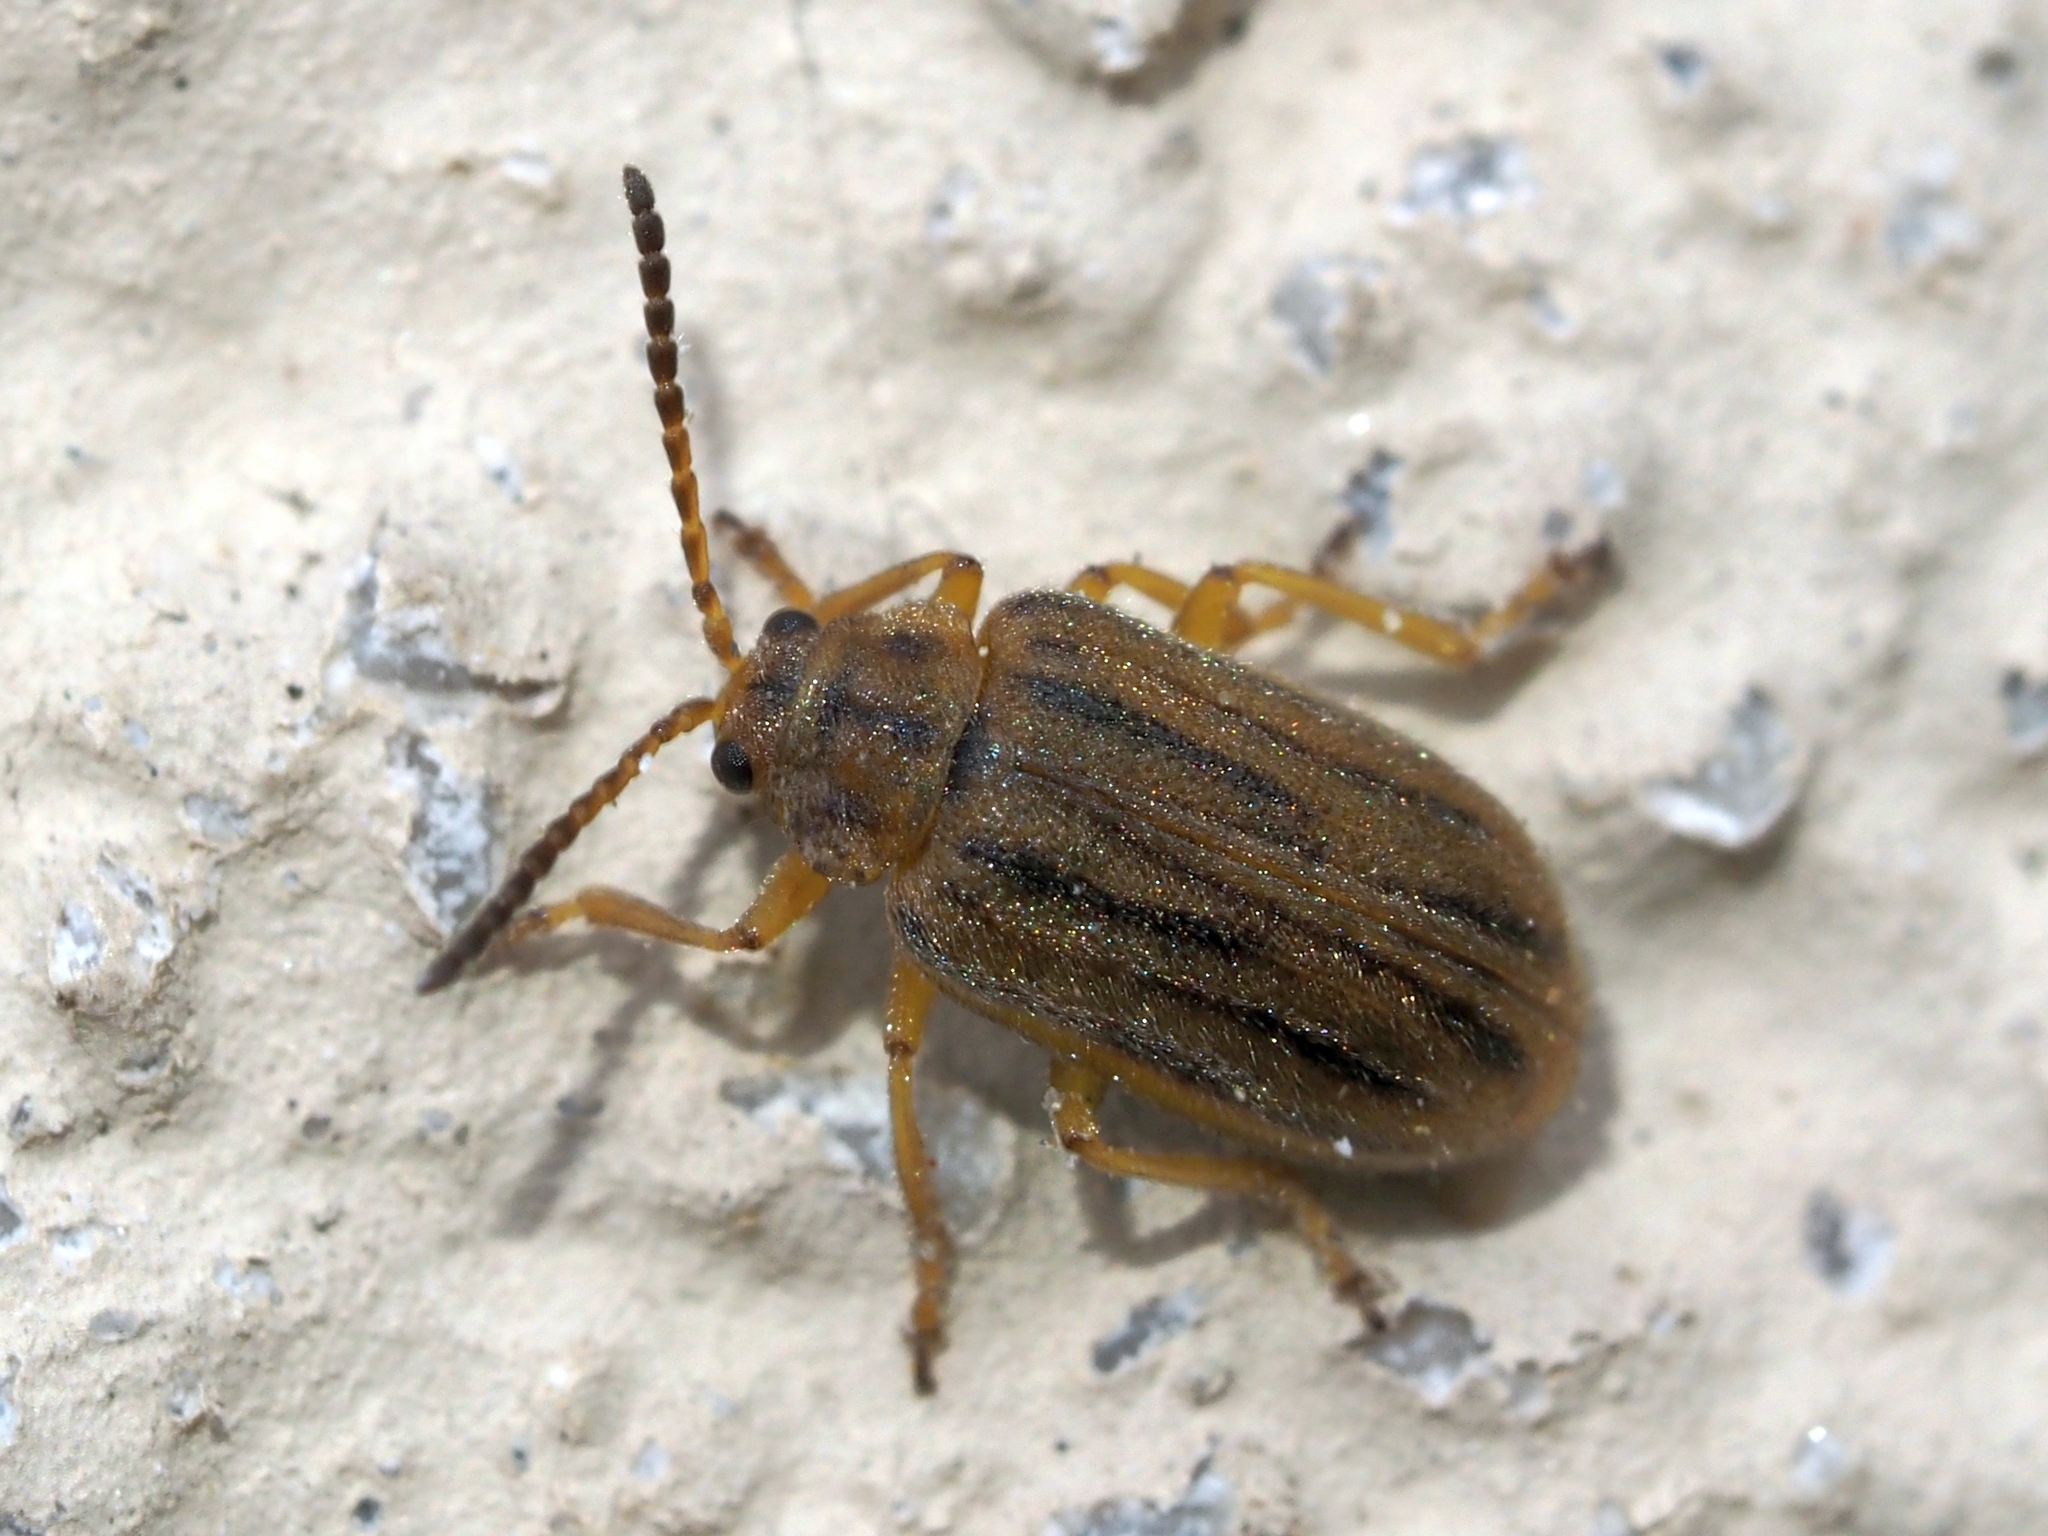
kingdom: Animalia
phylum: Arthropoda
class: Insecta
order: Coleoptera
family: Chrysomelidae
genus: Ophraella
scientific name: Ophraella communa
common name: Ragweed leaf beetle
